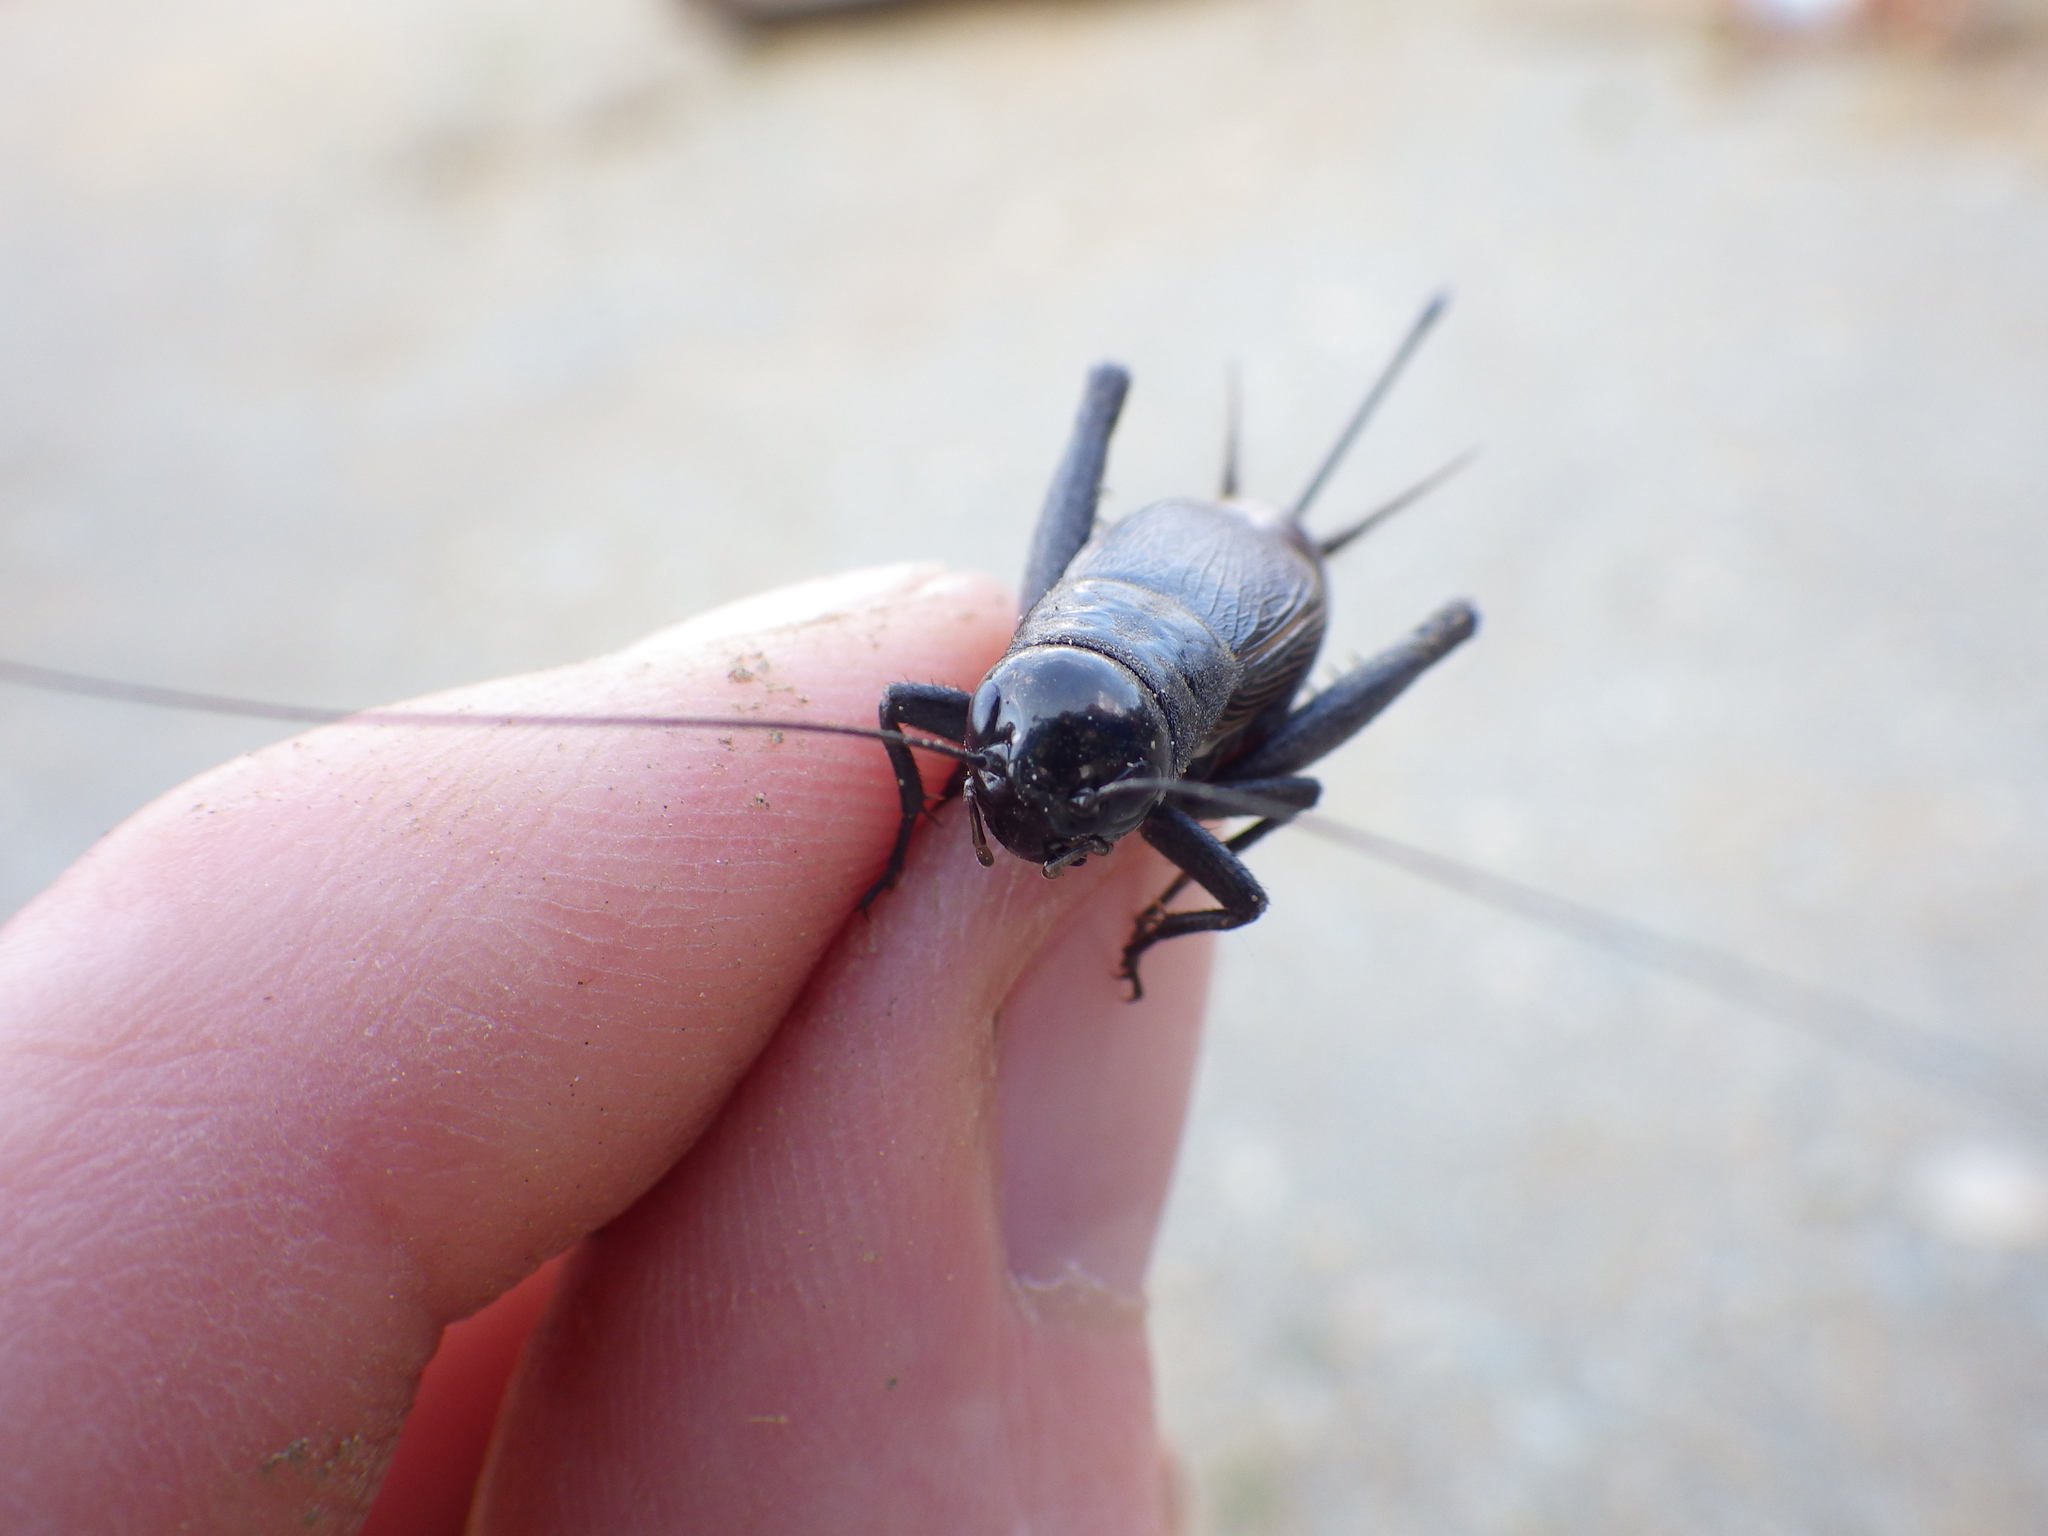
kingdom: Animalia
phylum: Arthropoda
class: Insecta
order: Orthoptera
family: Gryllidae
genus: Gryllus
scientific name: Gryllus pennsylvanicus
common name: Fall field cricket
